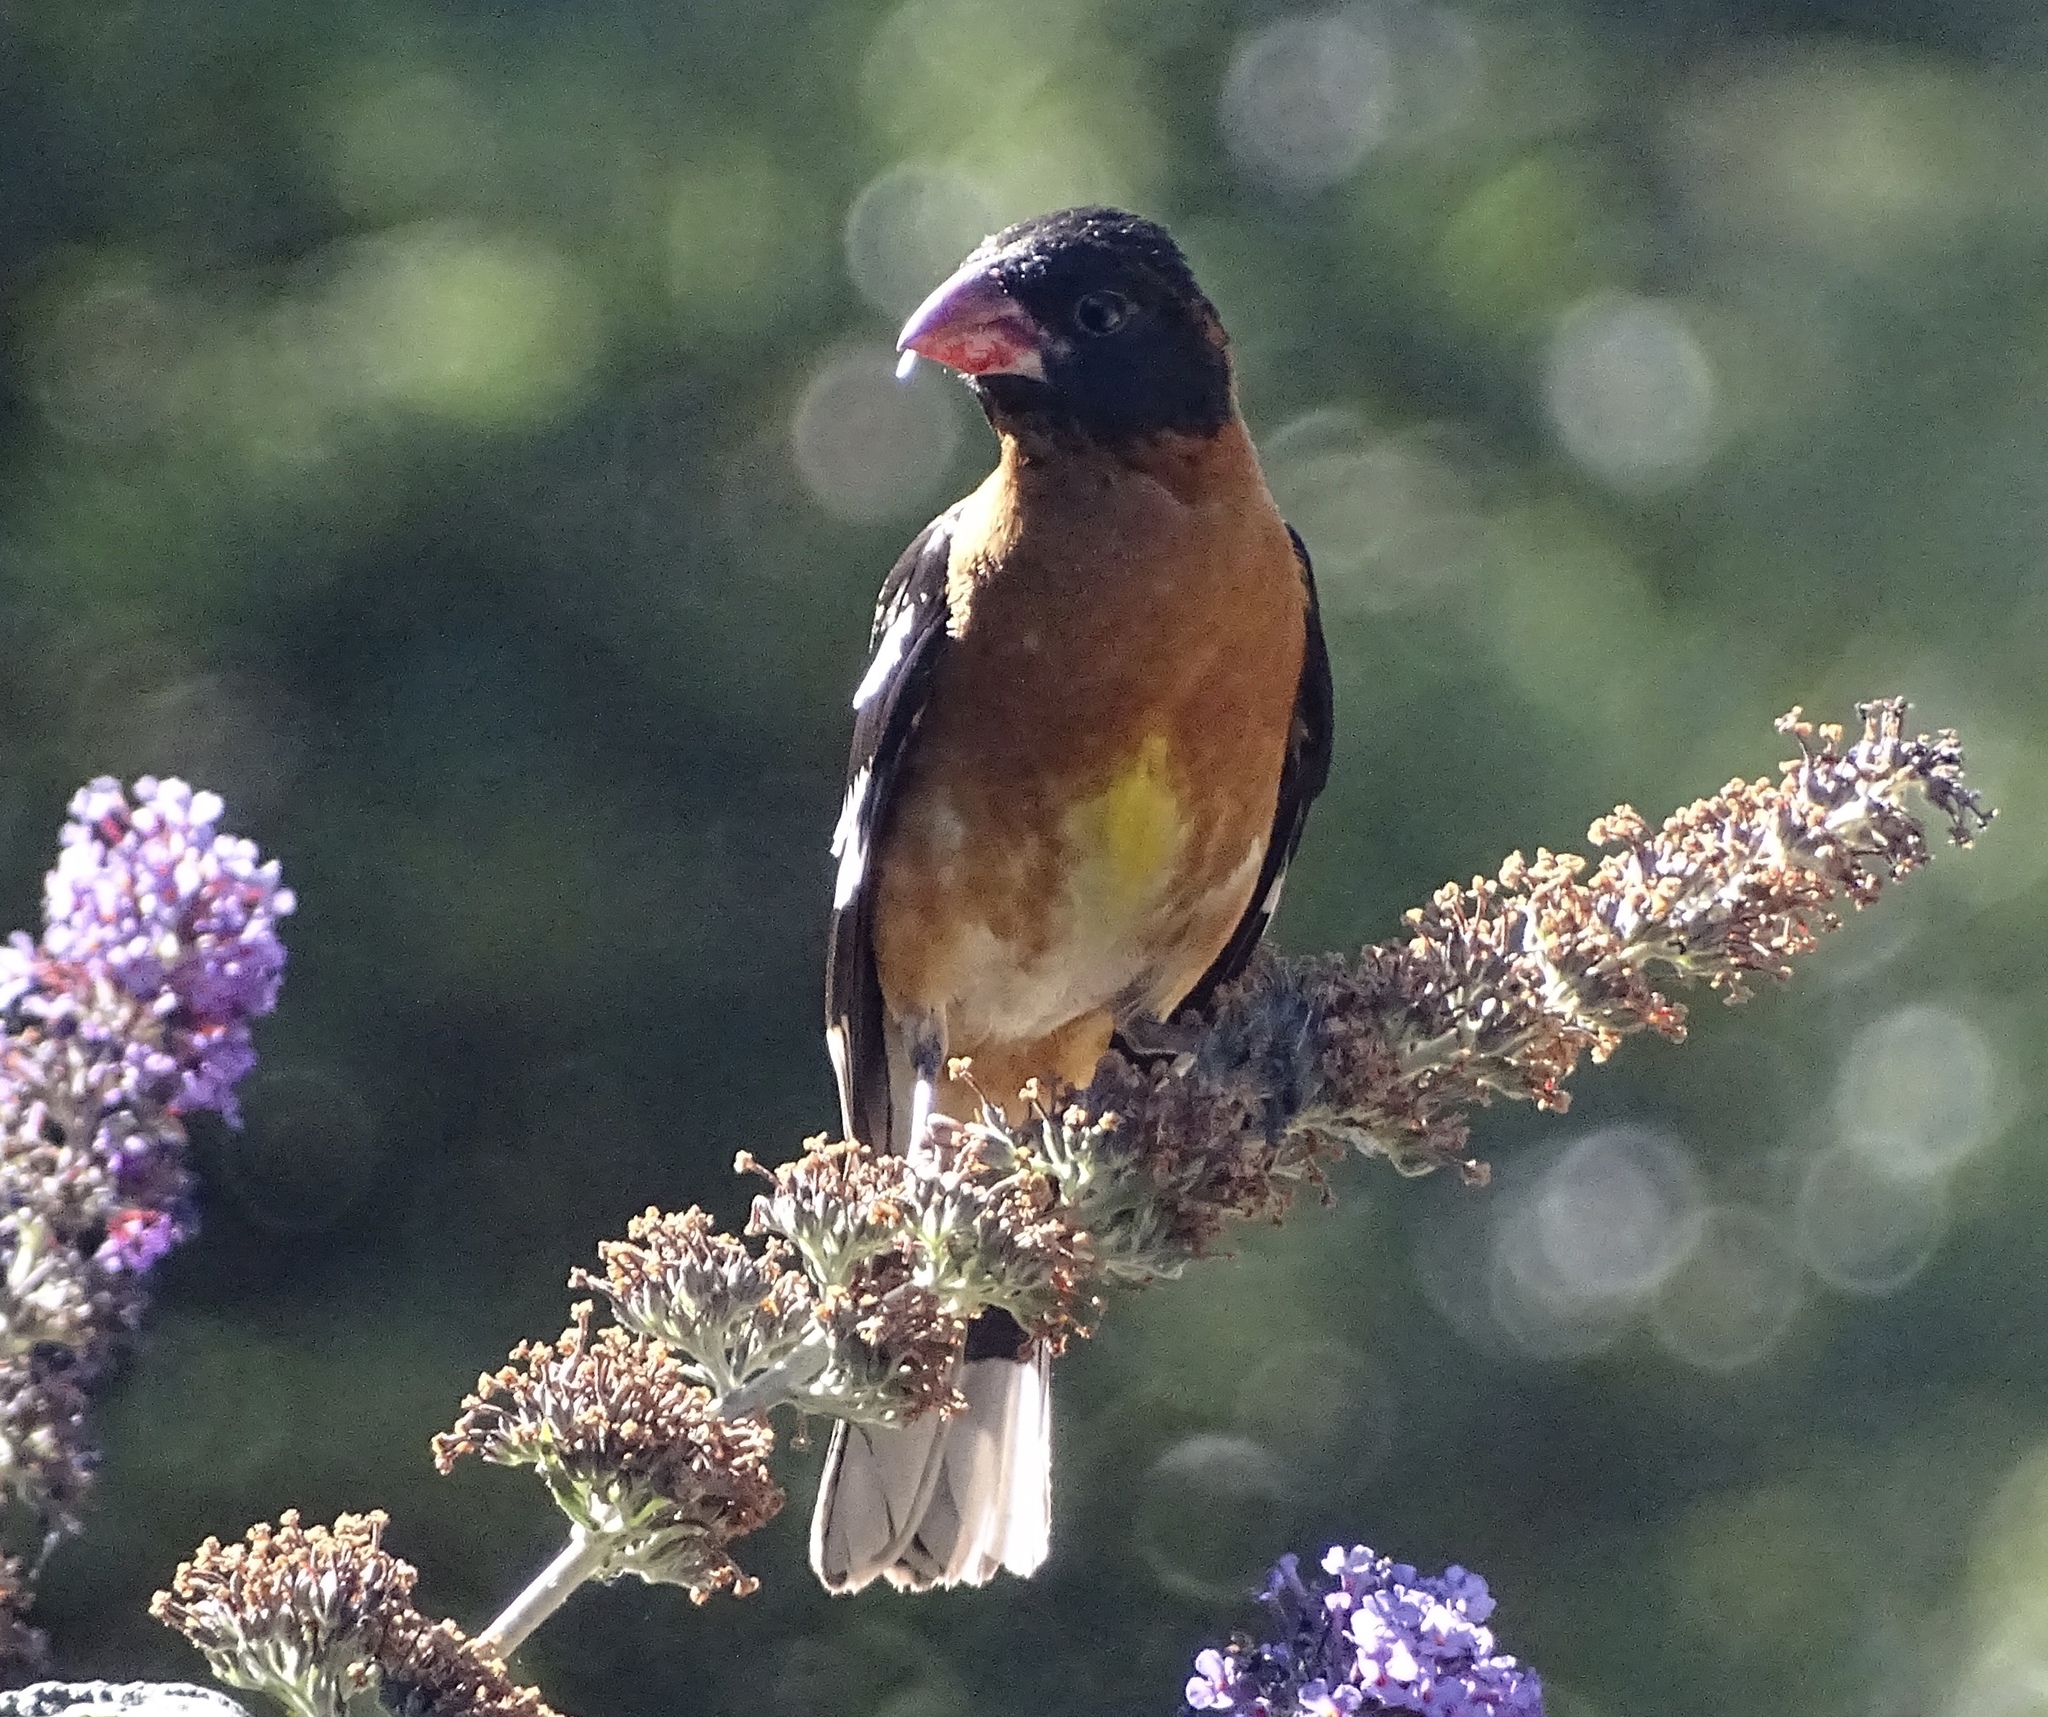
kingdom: Animalia
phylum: Chordata
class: Aves
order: Passeriformes
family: Cardinalidae
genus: Pheucticus
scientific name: Pheucticus melanocephalus
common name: Black-headed grosbeak
